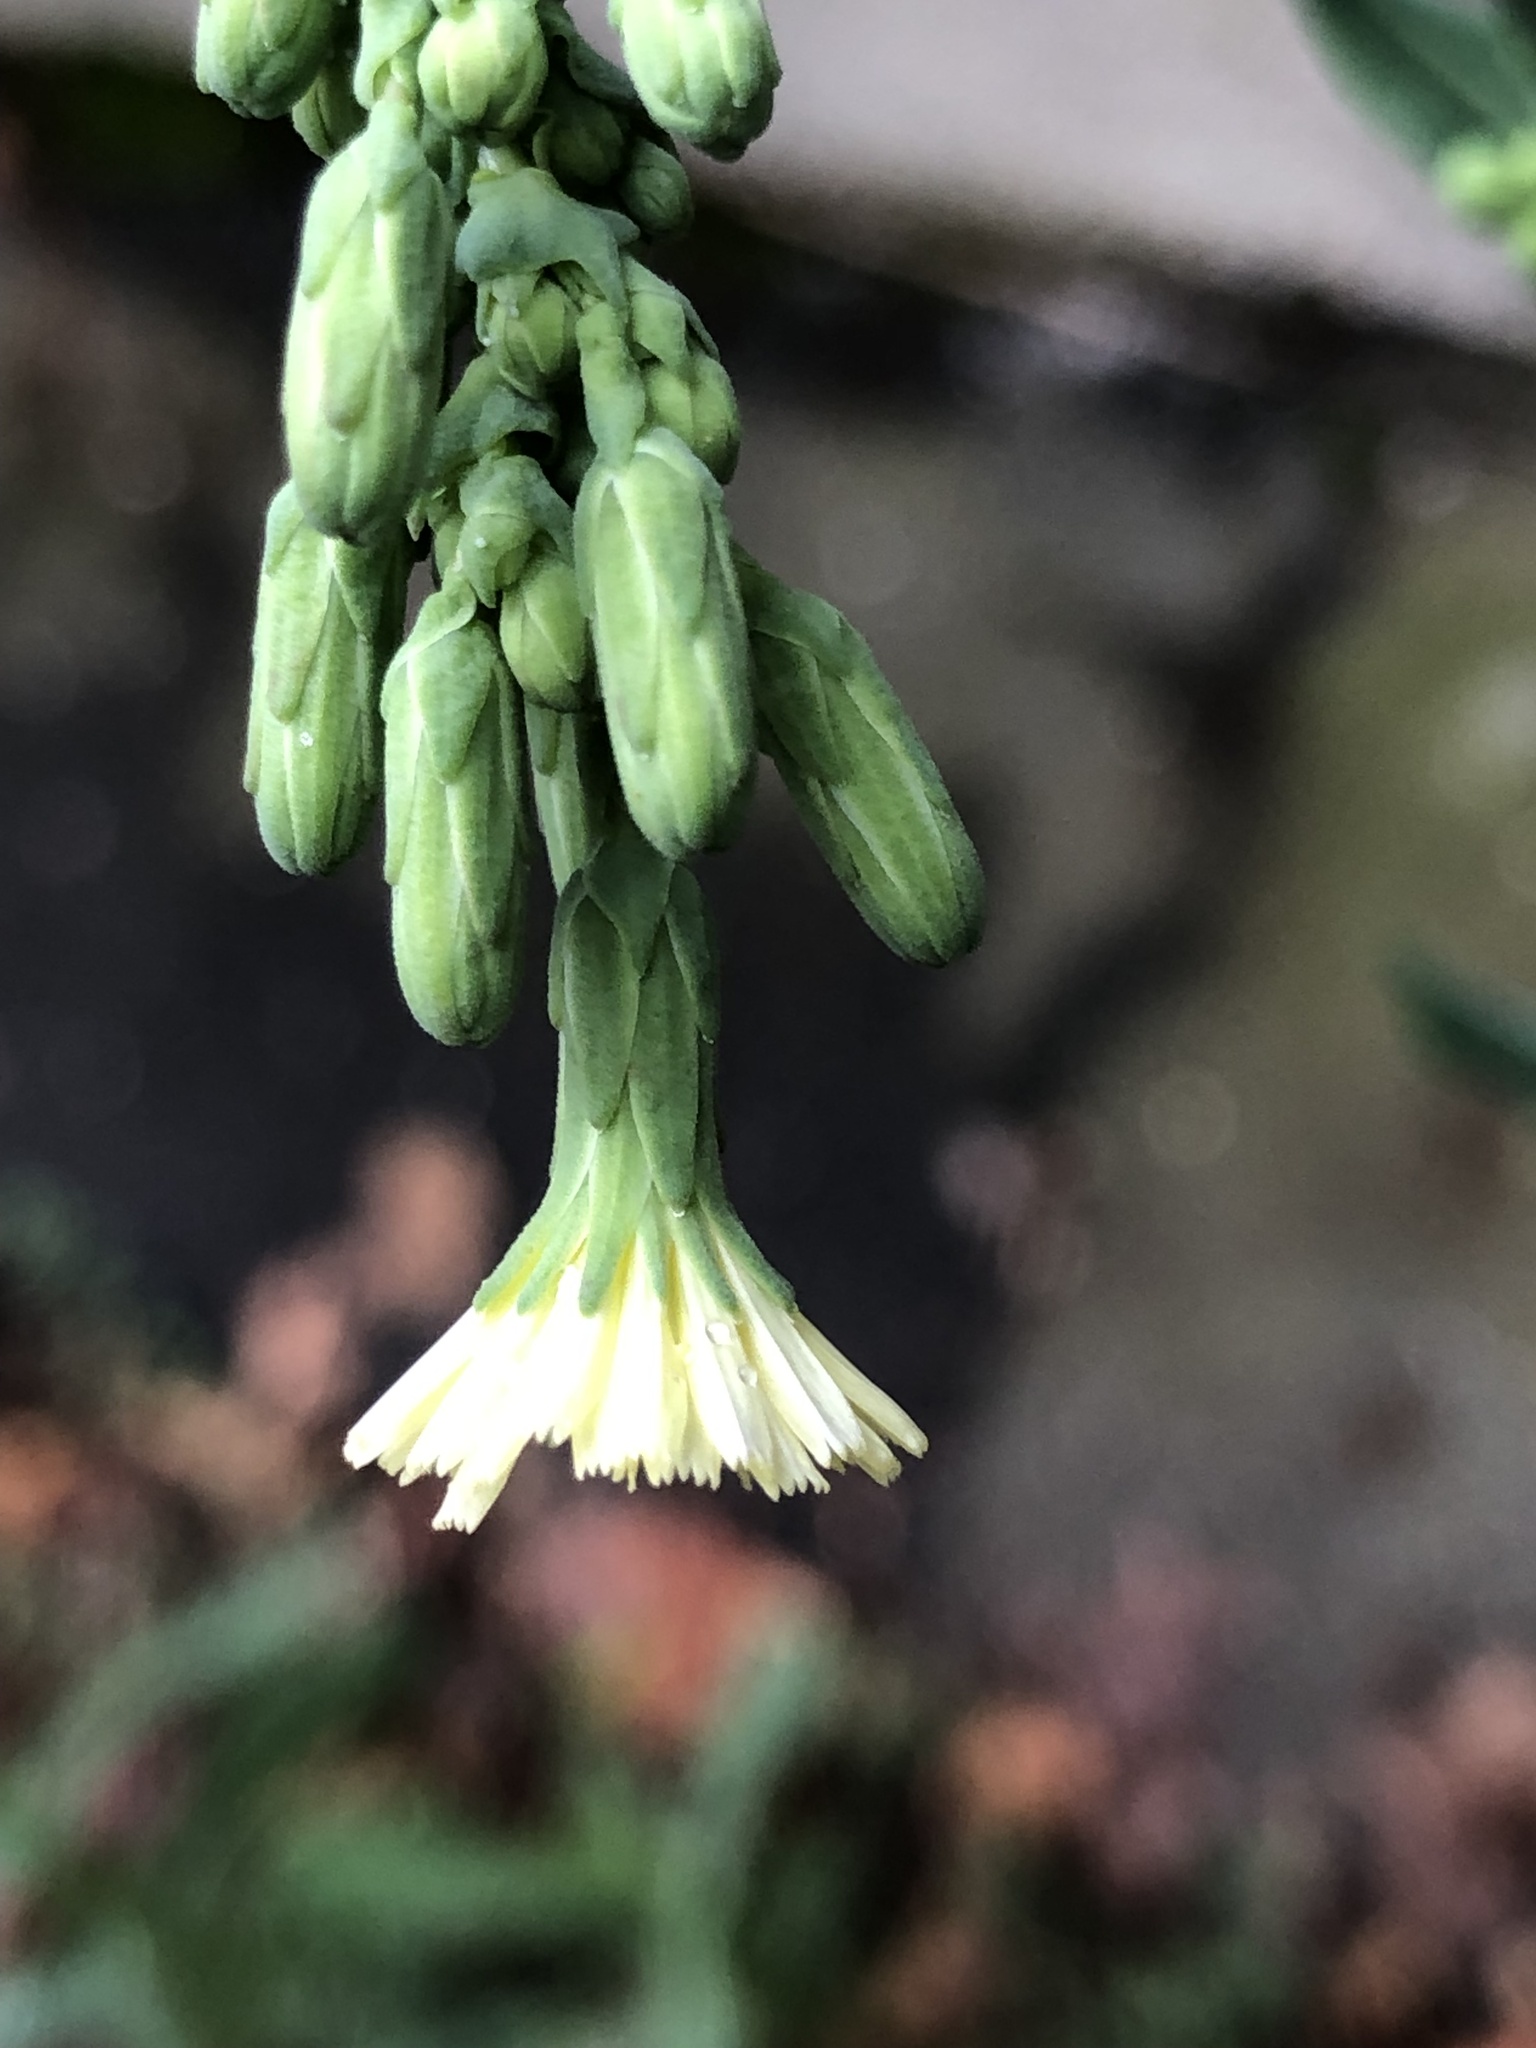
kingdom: Plantae
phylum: Tracheophyta
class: Magnoliopsida
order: Asterales
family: Asteraceae
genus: Lactuca
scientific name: Lactuca serriola
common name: Prickly lettuce
